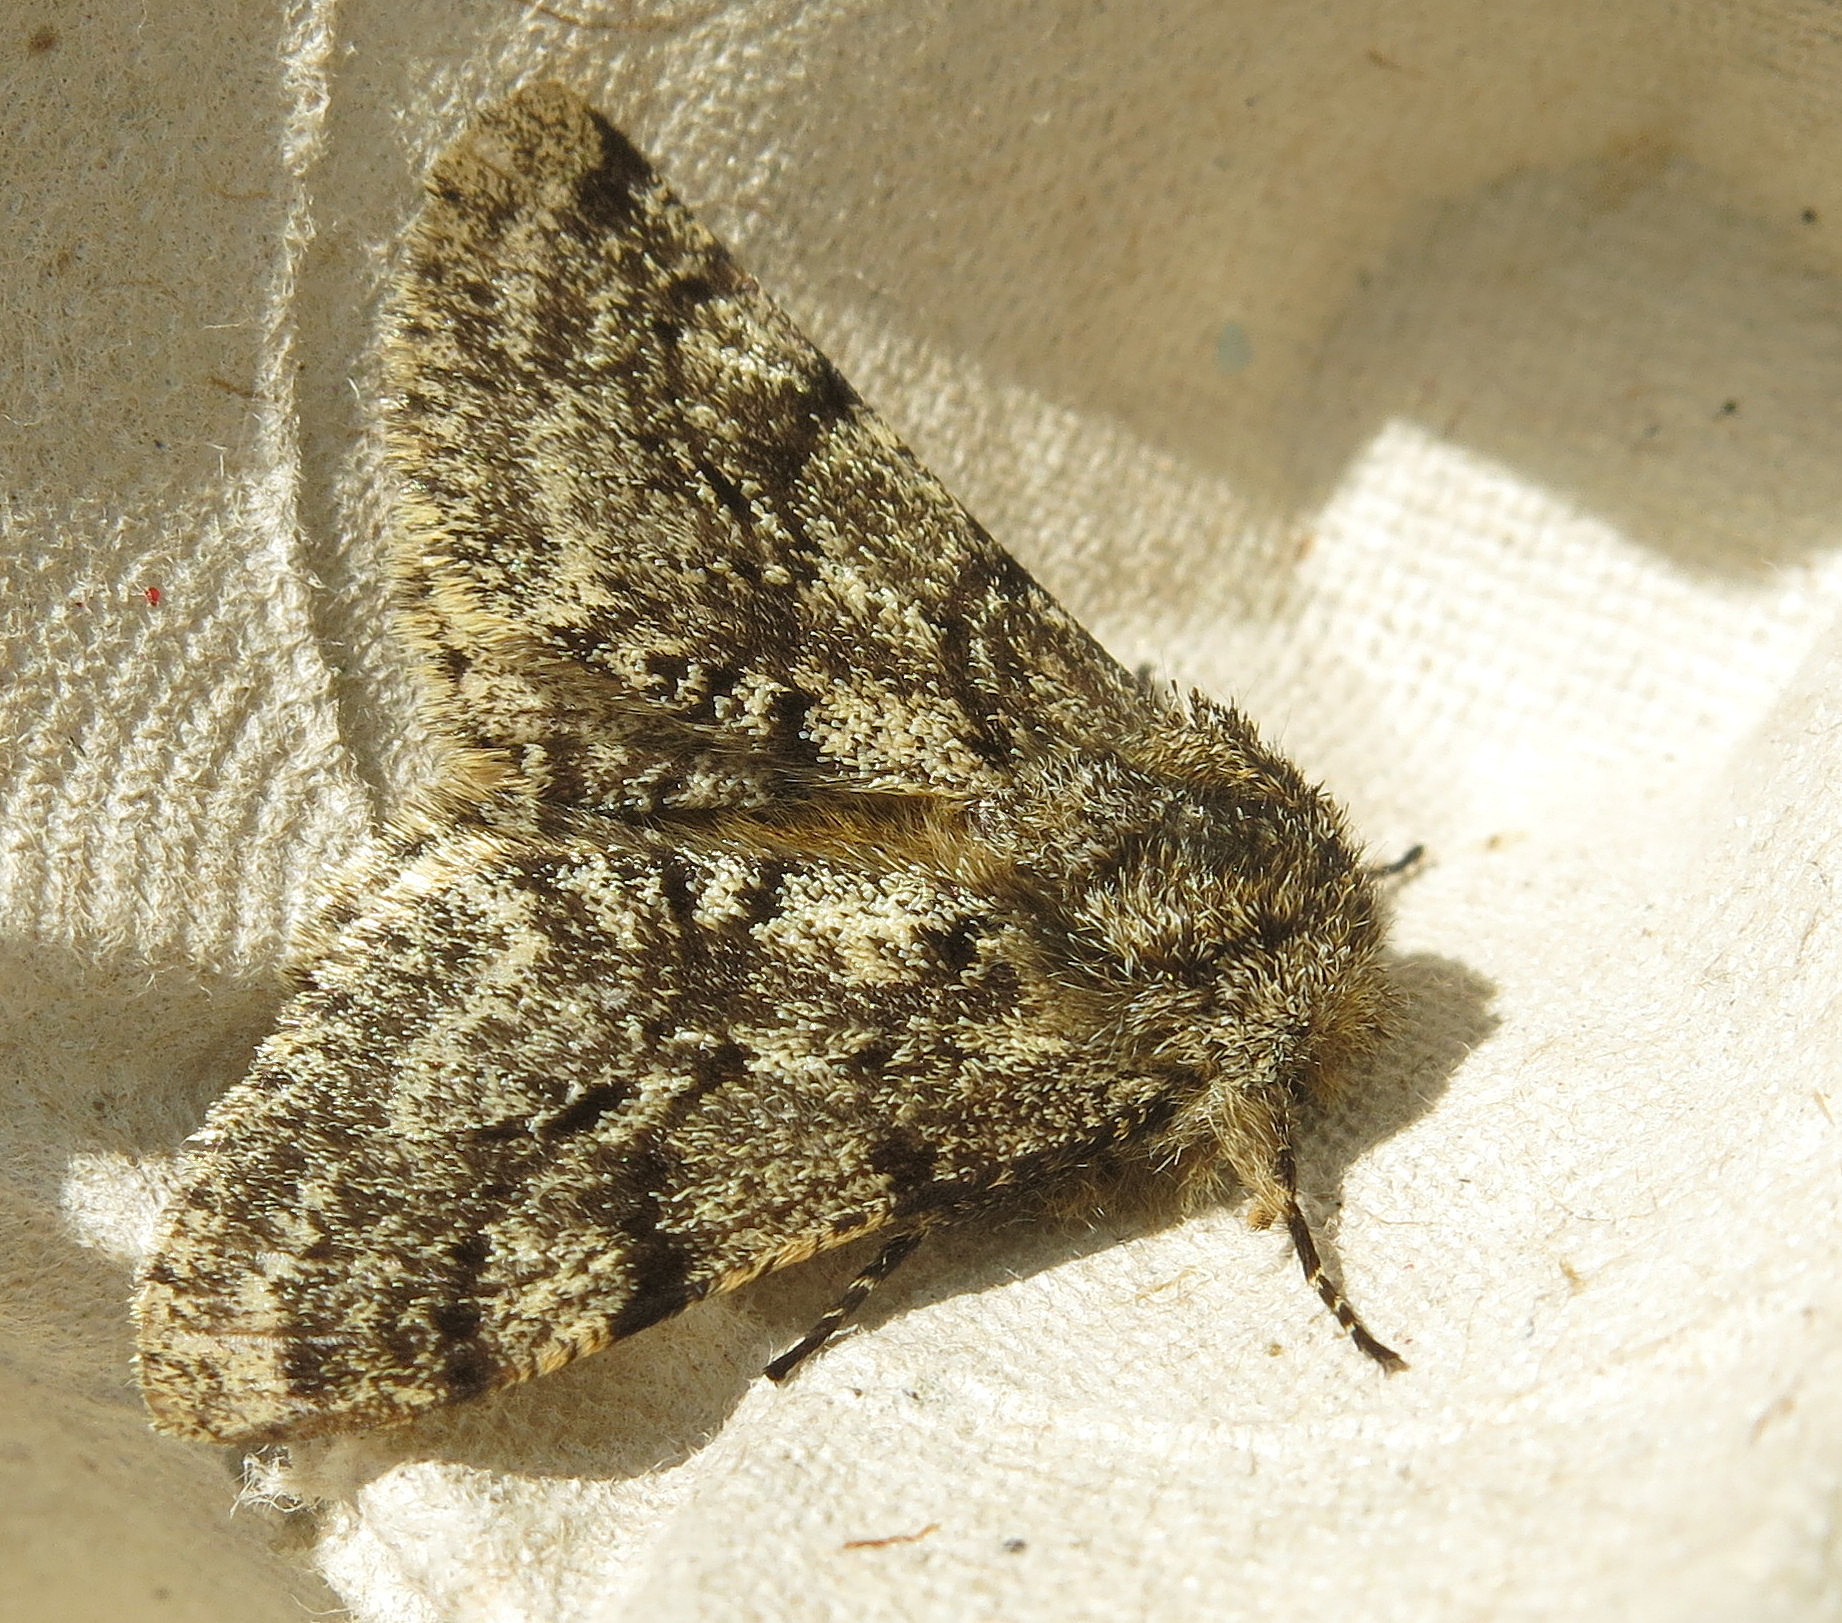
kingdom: Animalia
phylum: Arthropoda
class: Insecta
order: Lepidoptera
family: Geometridae
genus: Lycia
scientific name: Lycia hirtaria
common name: Brindled beauty
